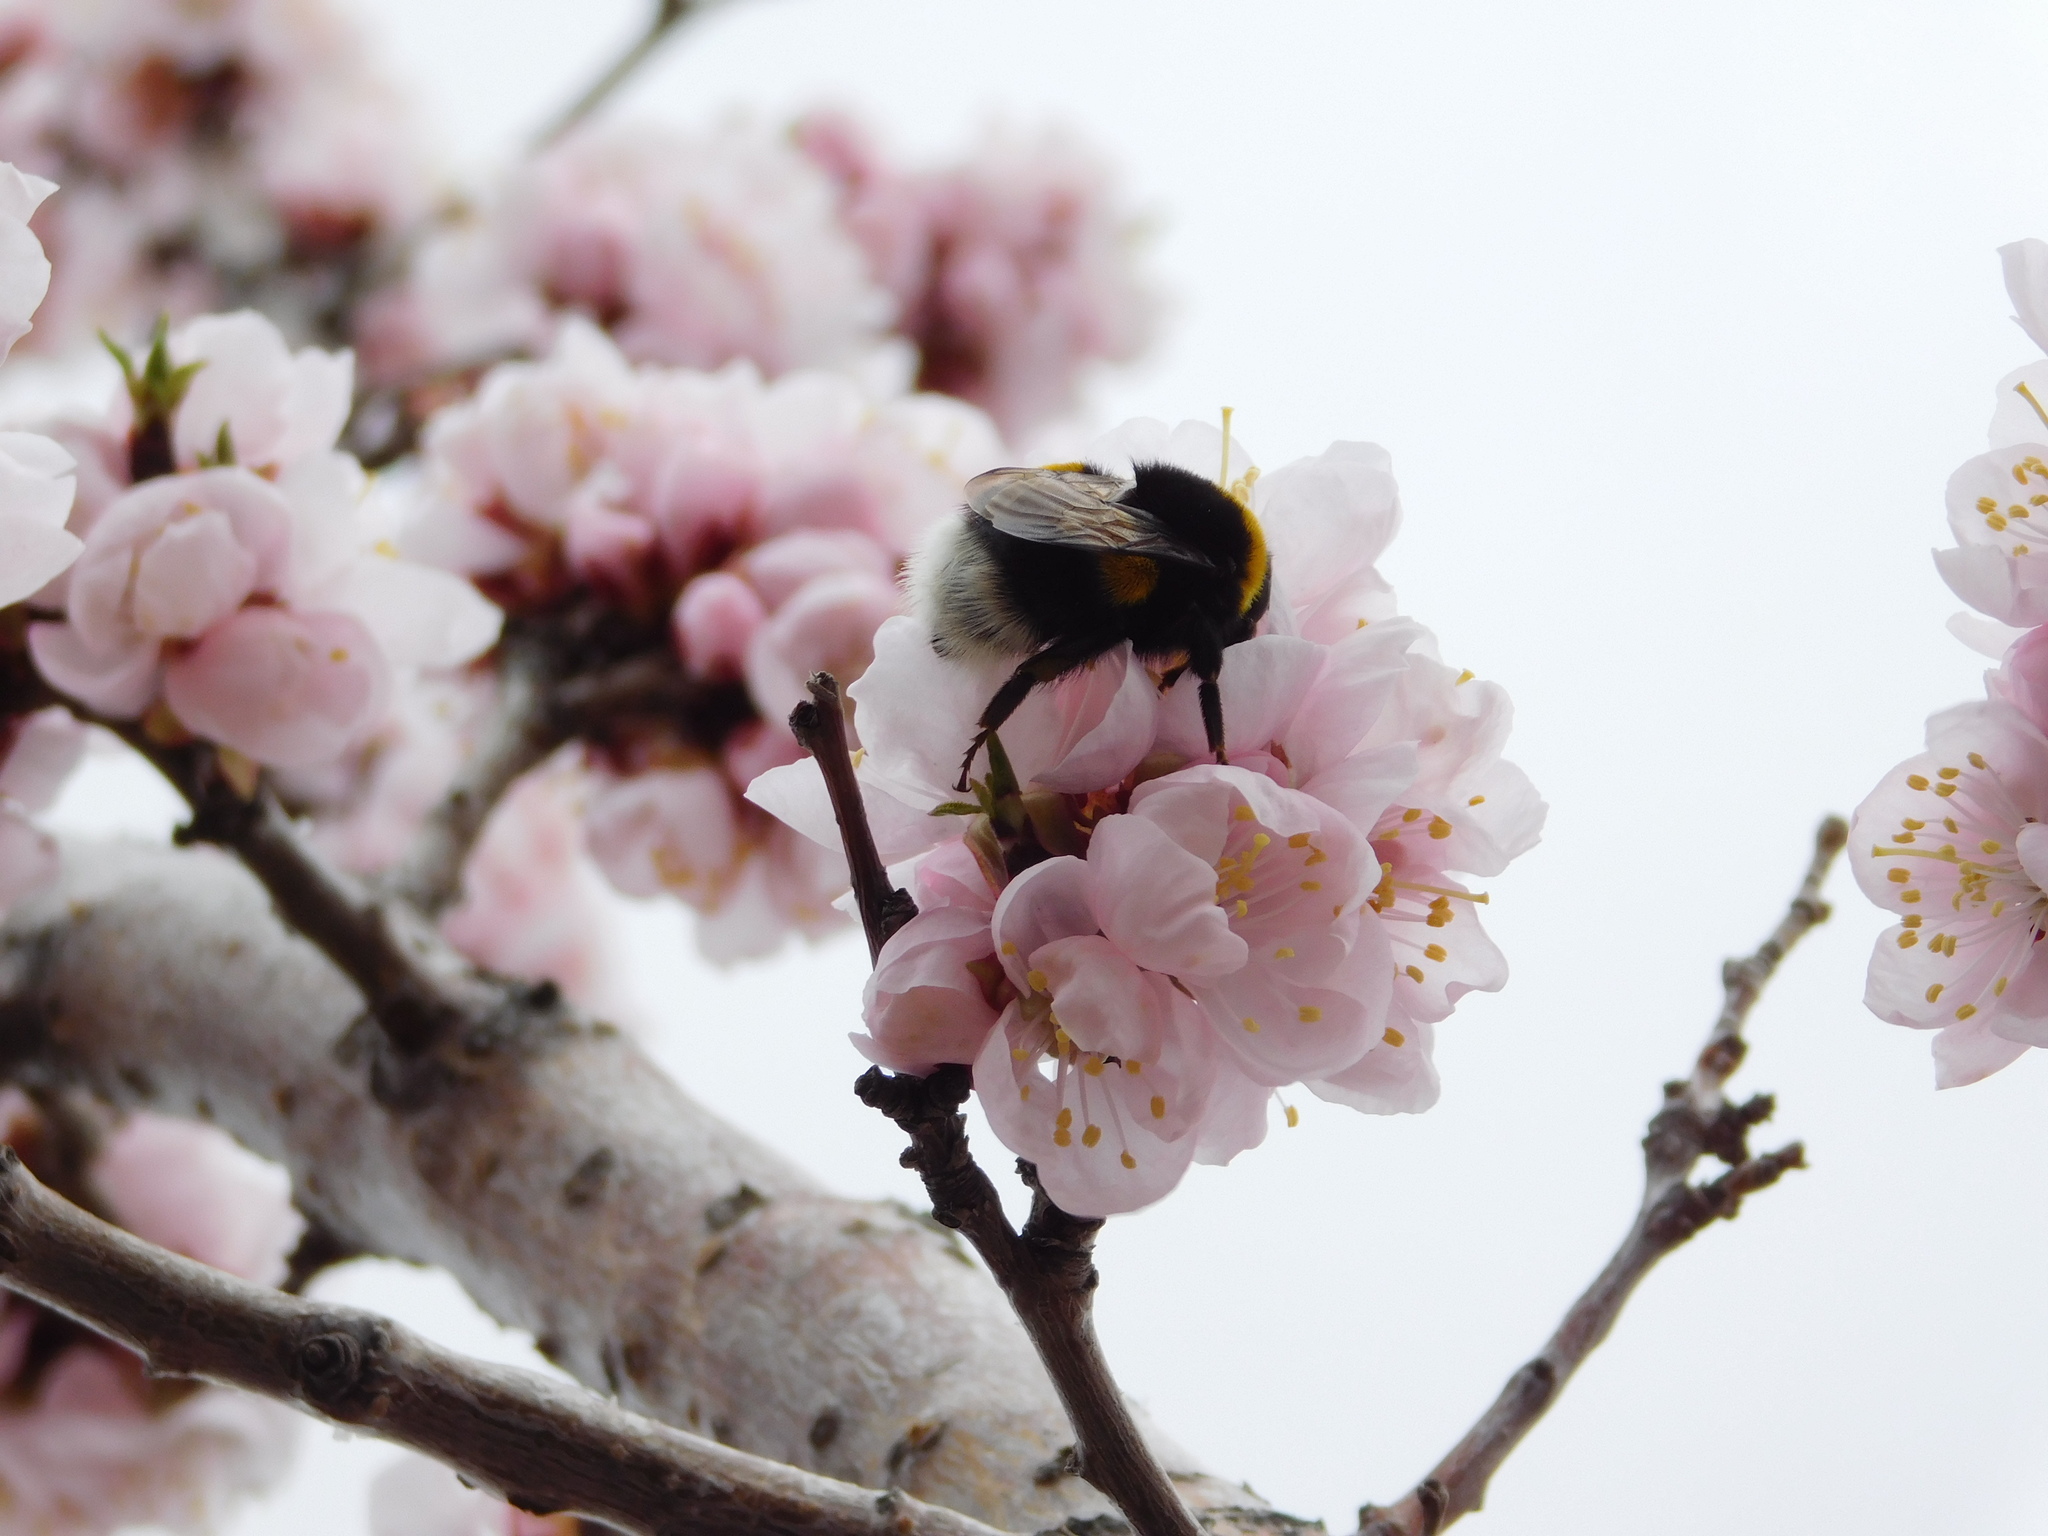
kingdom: Animalia
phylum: Arthropoda
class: Insecta
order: Hymenoptera
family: Apidae
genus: Bombus
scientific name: Bombus
